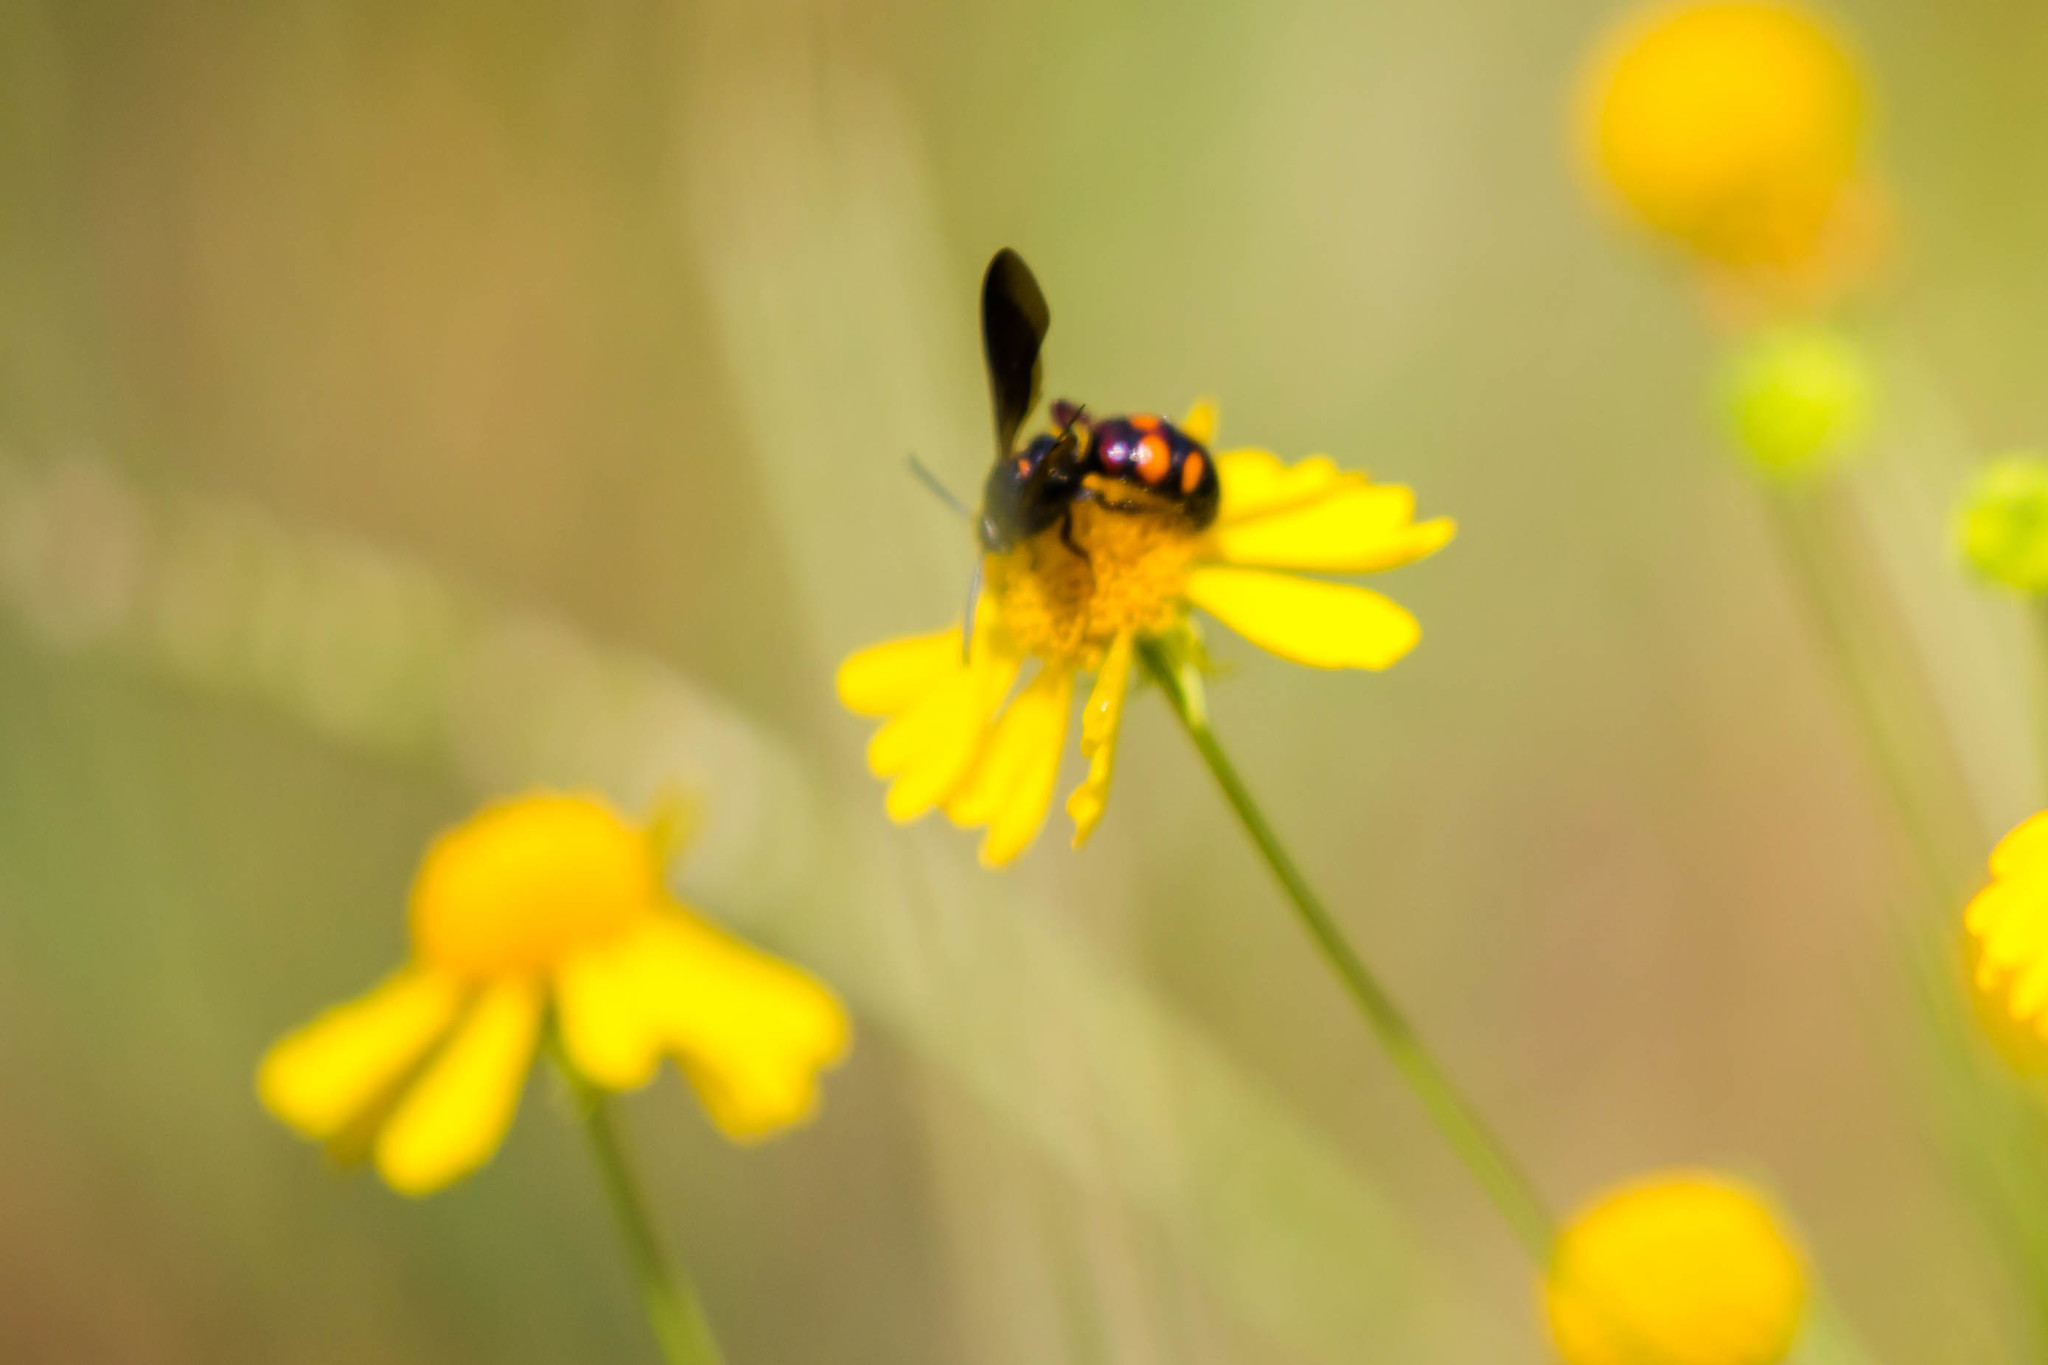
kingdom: Animalia
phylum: Arthropoda
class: Insecta
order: Hymenoptera
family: Scoliidae
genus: Scolia
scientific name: Scolia nobilitata
